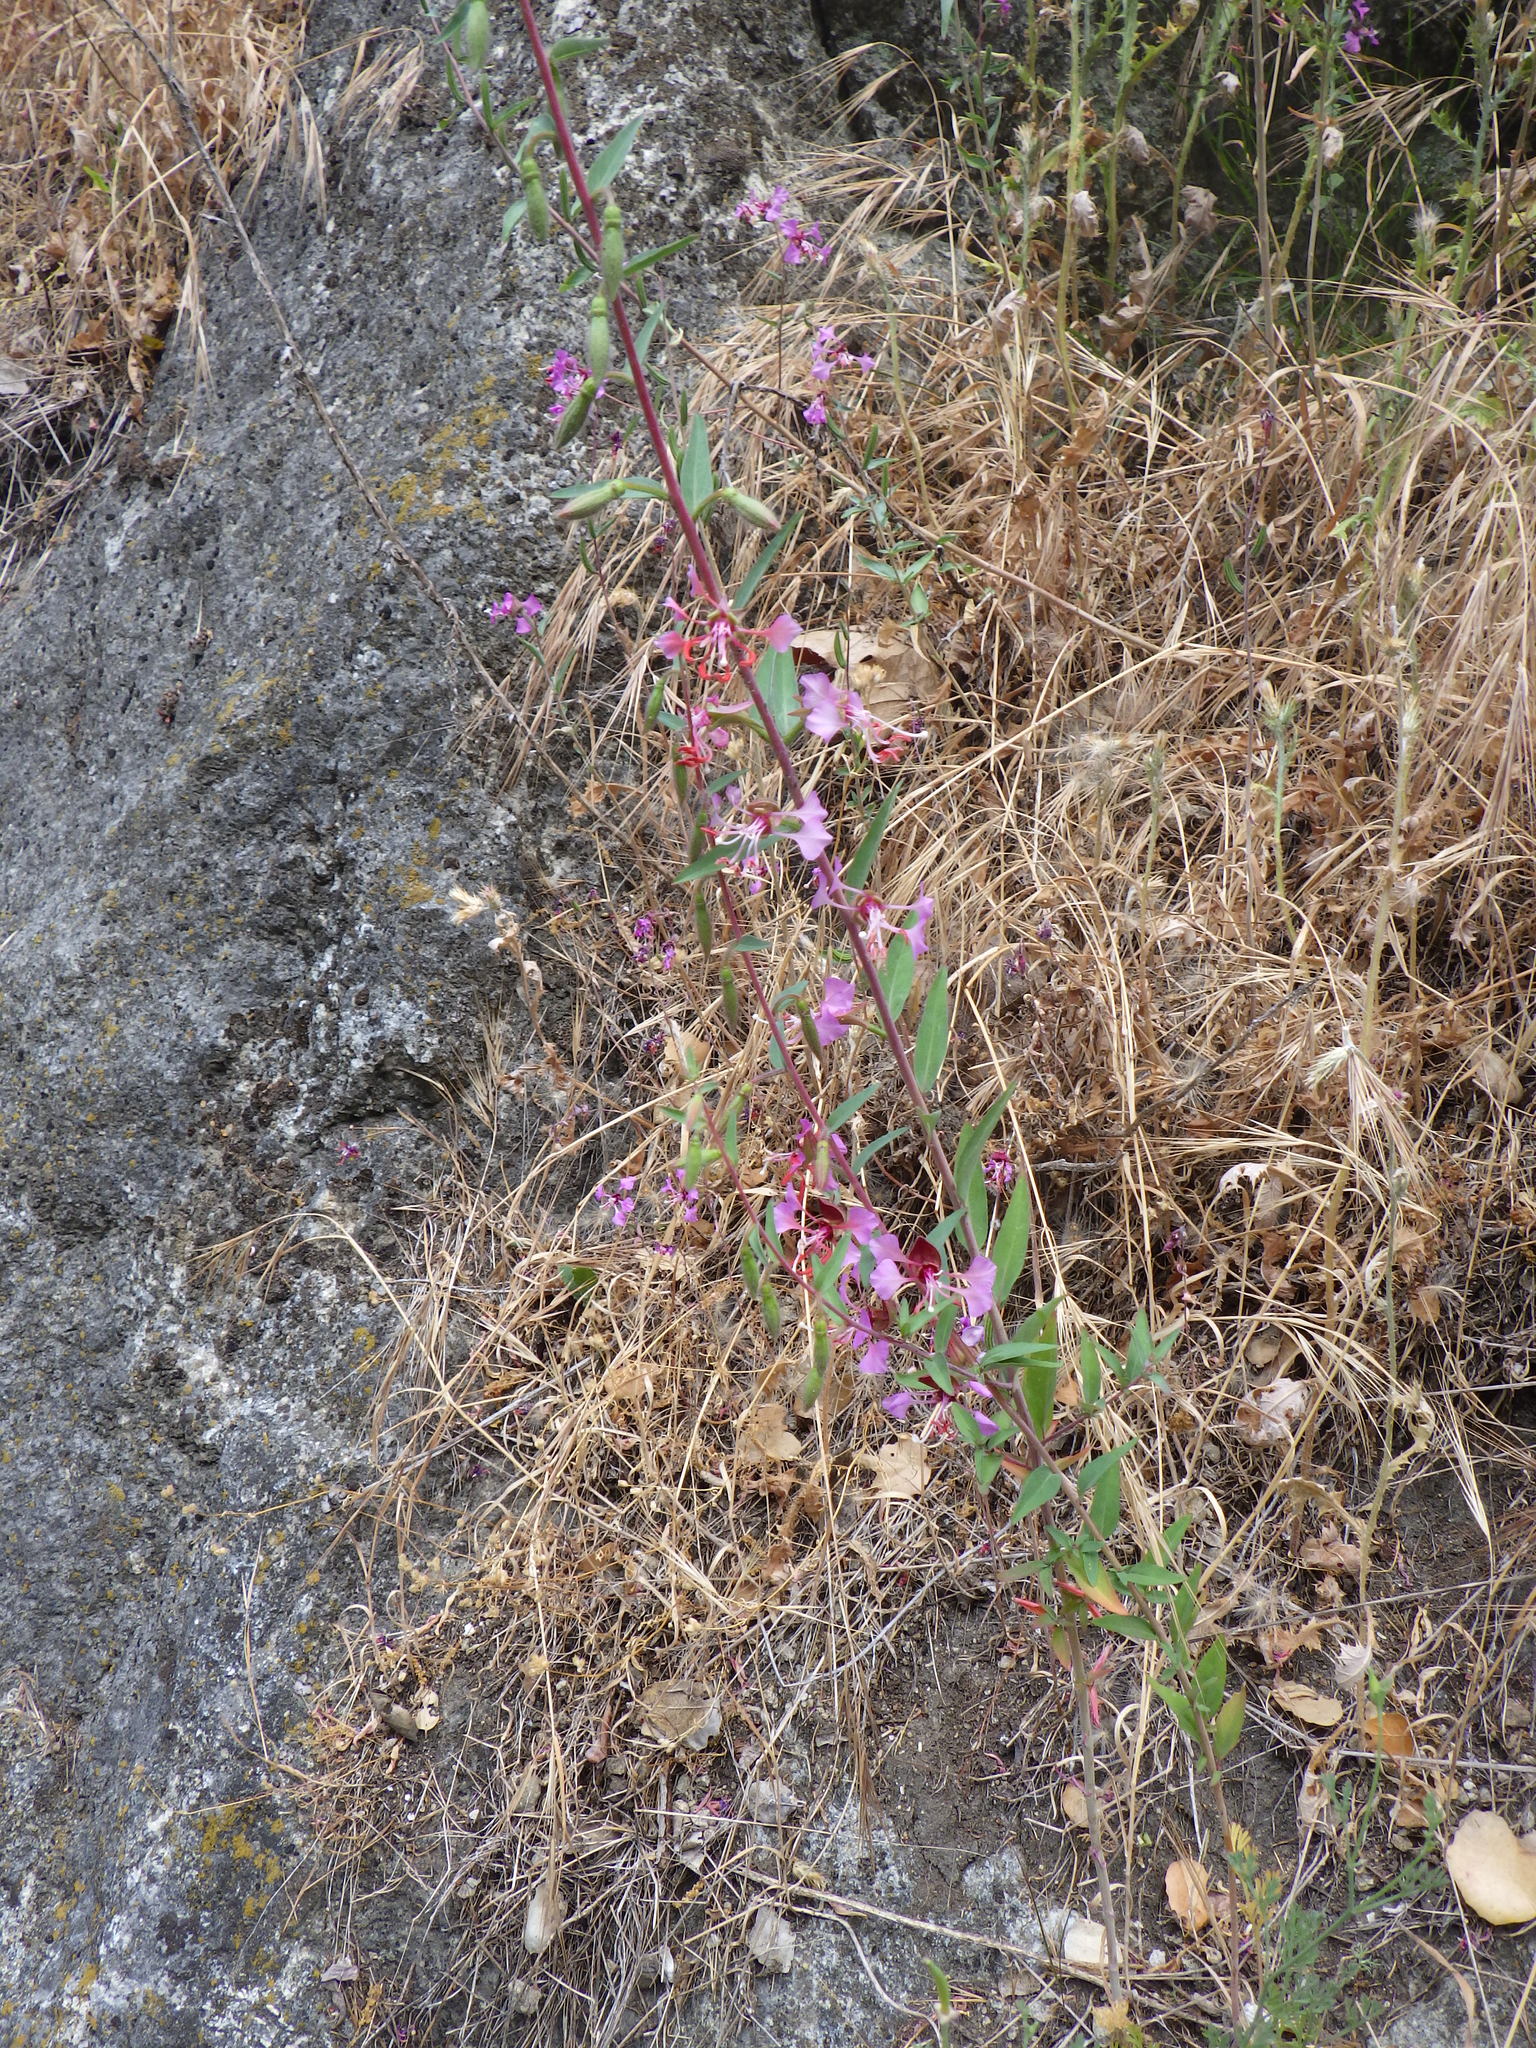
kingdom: Plantae
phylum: Tracheophyta
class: Magnoliopsida
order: Myrtales
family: Onagraceae
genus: Clarkia
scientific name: Clarkia unguiculata
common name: Clarkia
